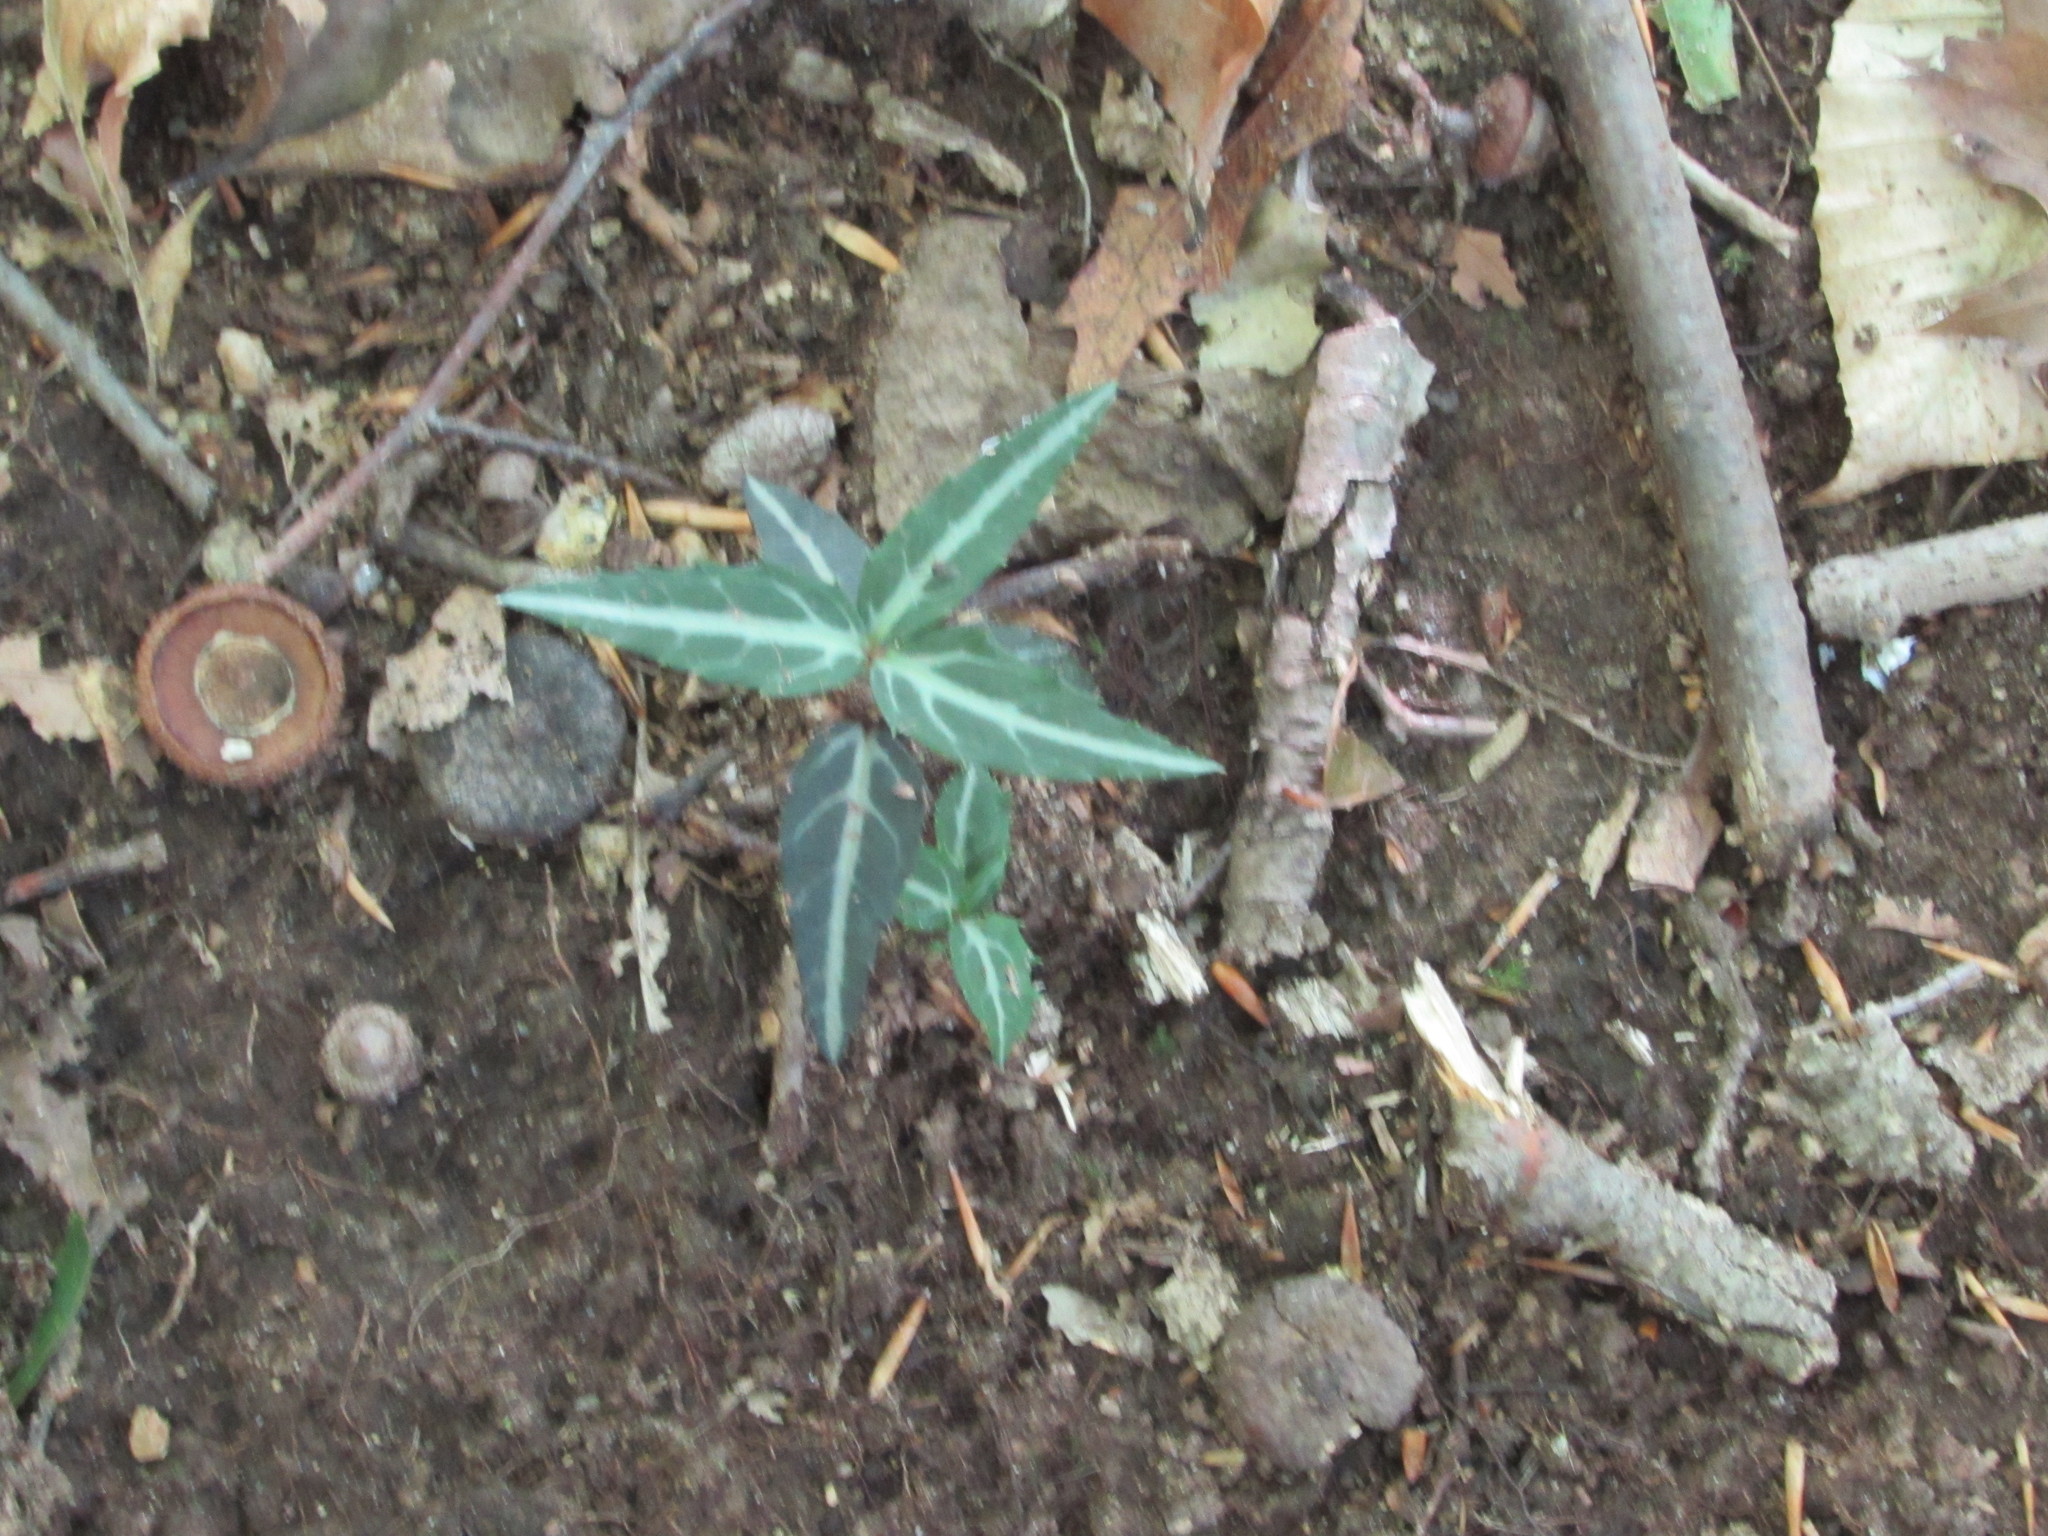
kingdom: Plantae
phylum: Tracheophyta
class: Magnoliopsida
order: Ericales
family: Ericaceae
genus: Chimaphila
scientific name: Chimaphila maculata
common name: Spotted pipsissewa
